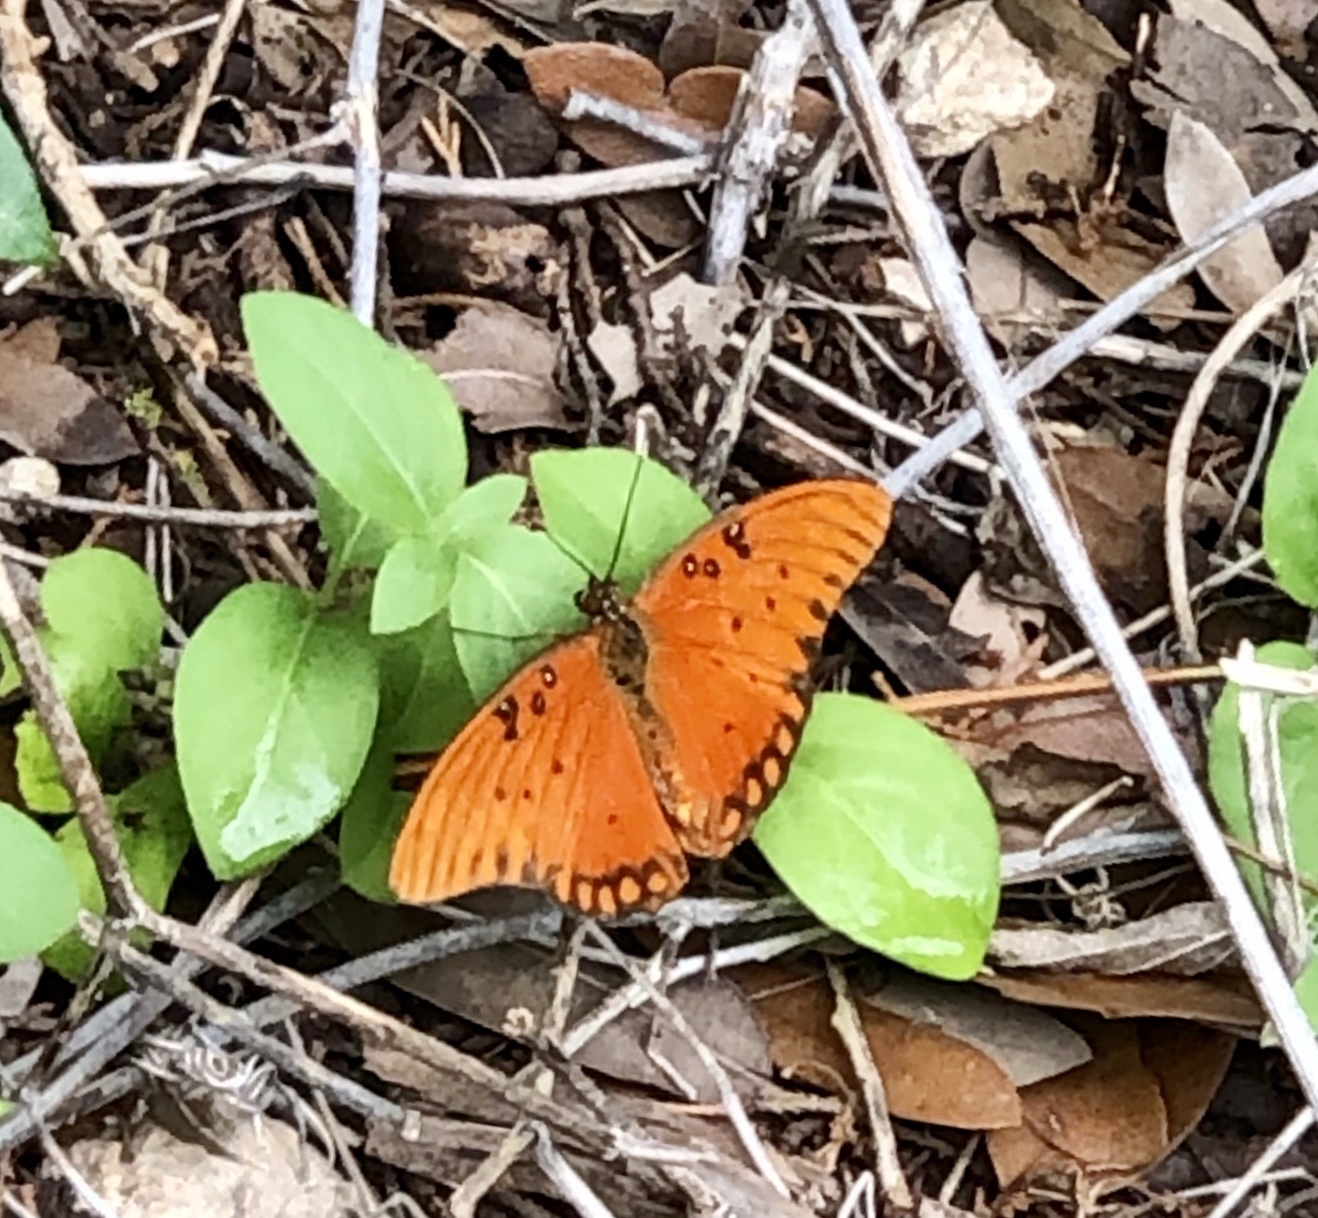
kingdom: Animalia
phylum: Arthropoda
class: Insecta
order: Lepidoptera
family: Nymphalidae
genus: Dione
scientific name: Dione vanillae
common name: Gulf fritillary
